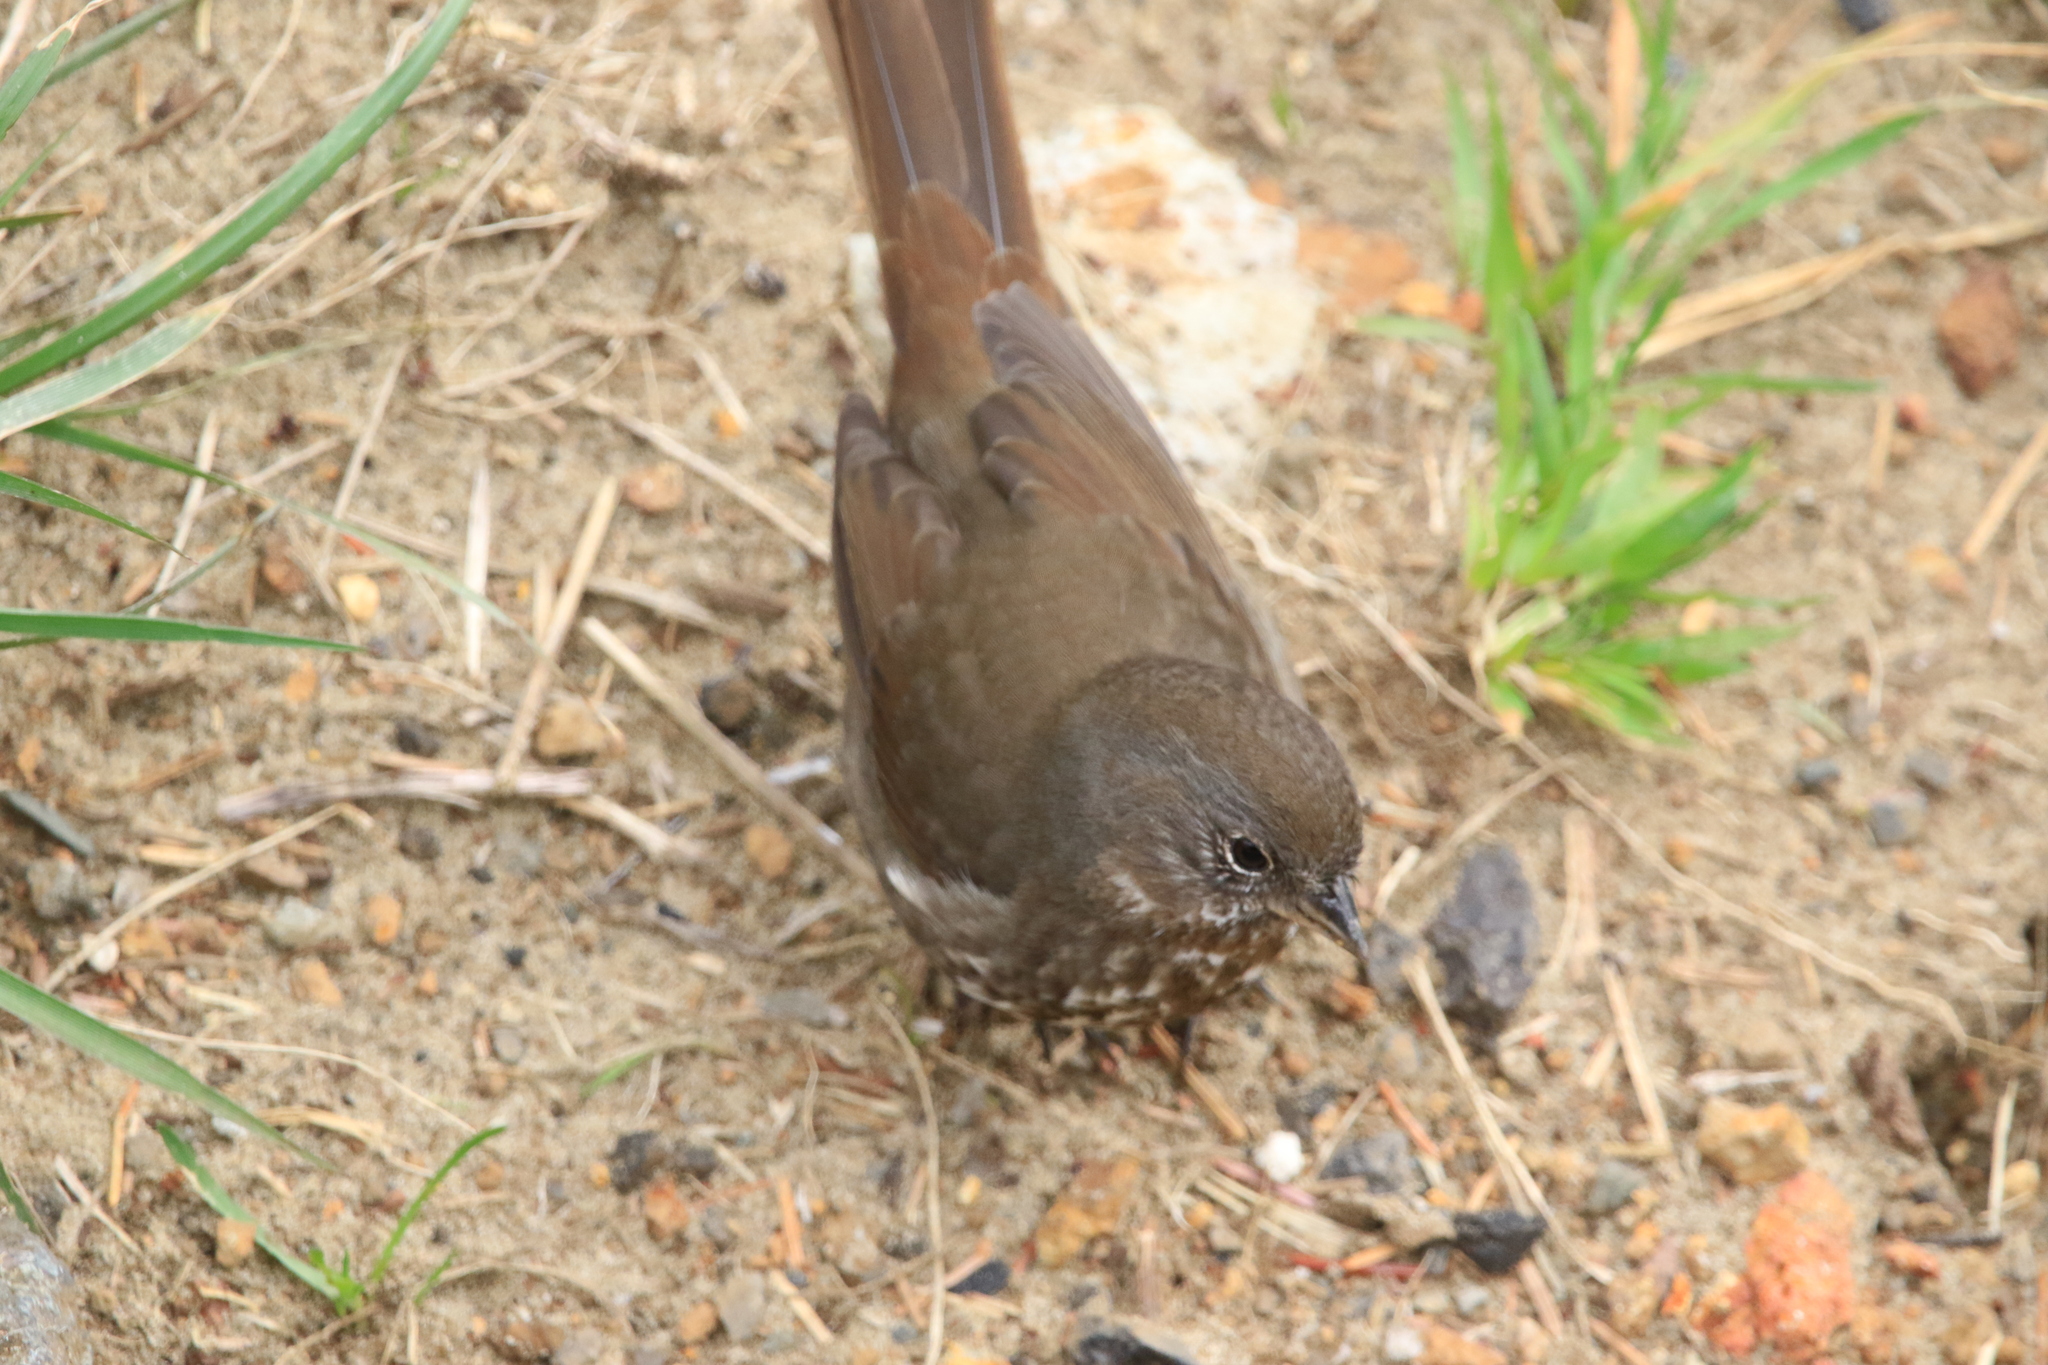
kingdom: Animalia
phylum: Chordata
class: Aves
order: Passeriformes
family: Passerellidae
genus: Passerella
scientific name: Passerella iliaca
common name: Fox sparrow
